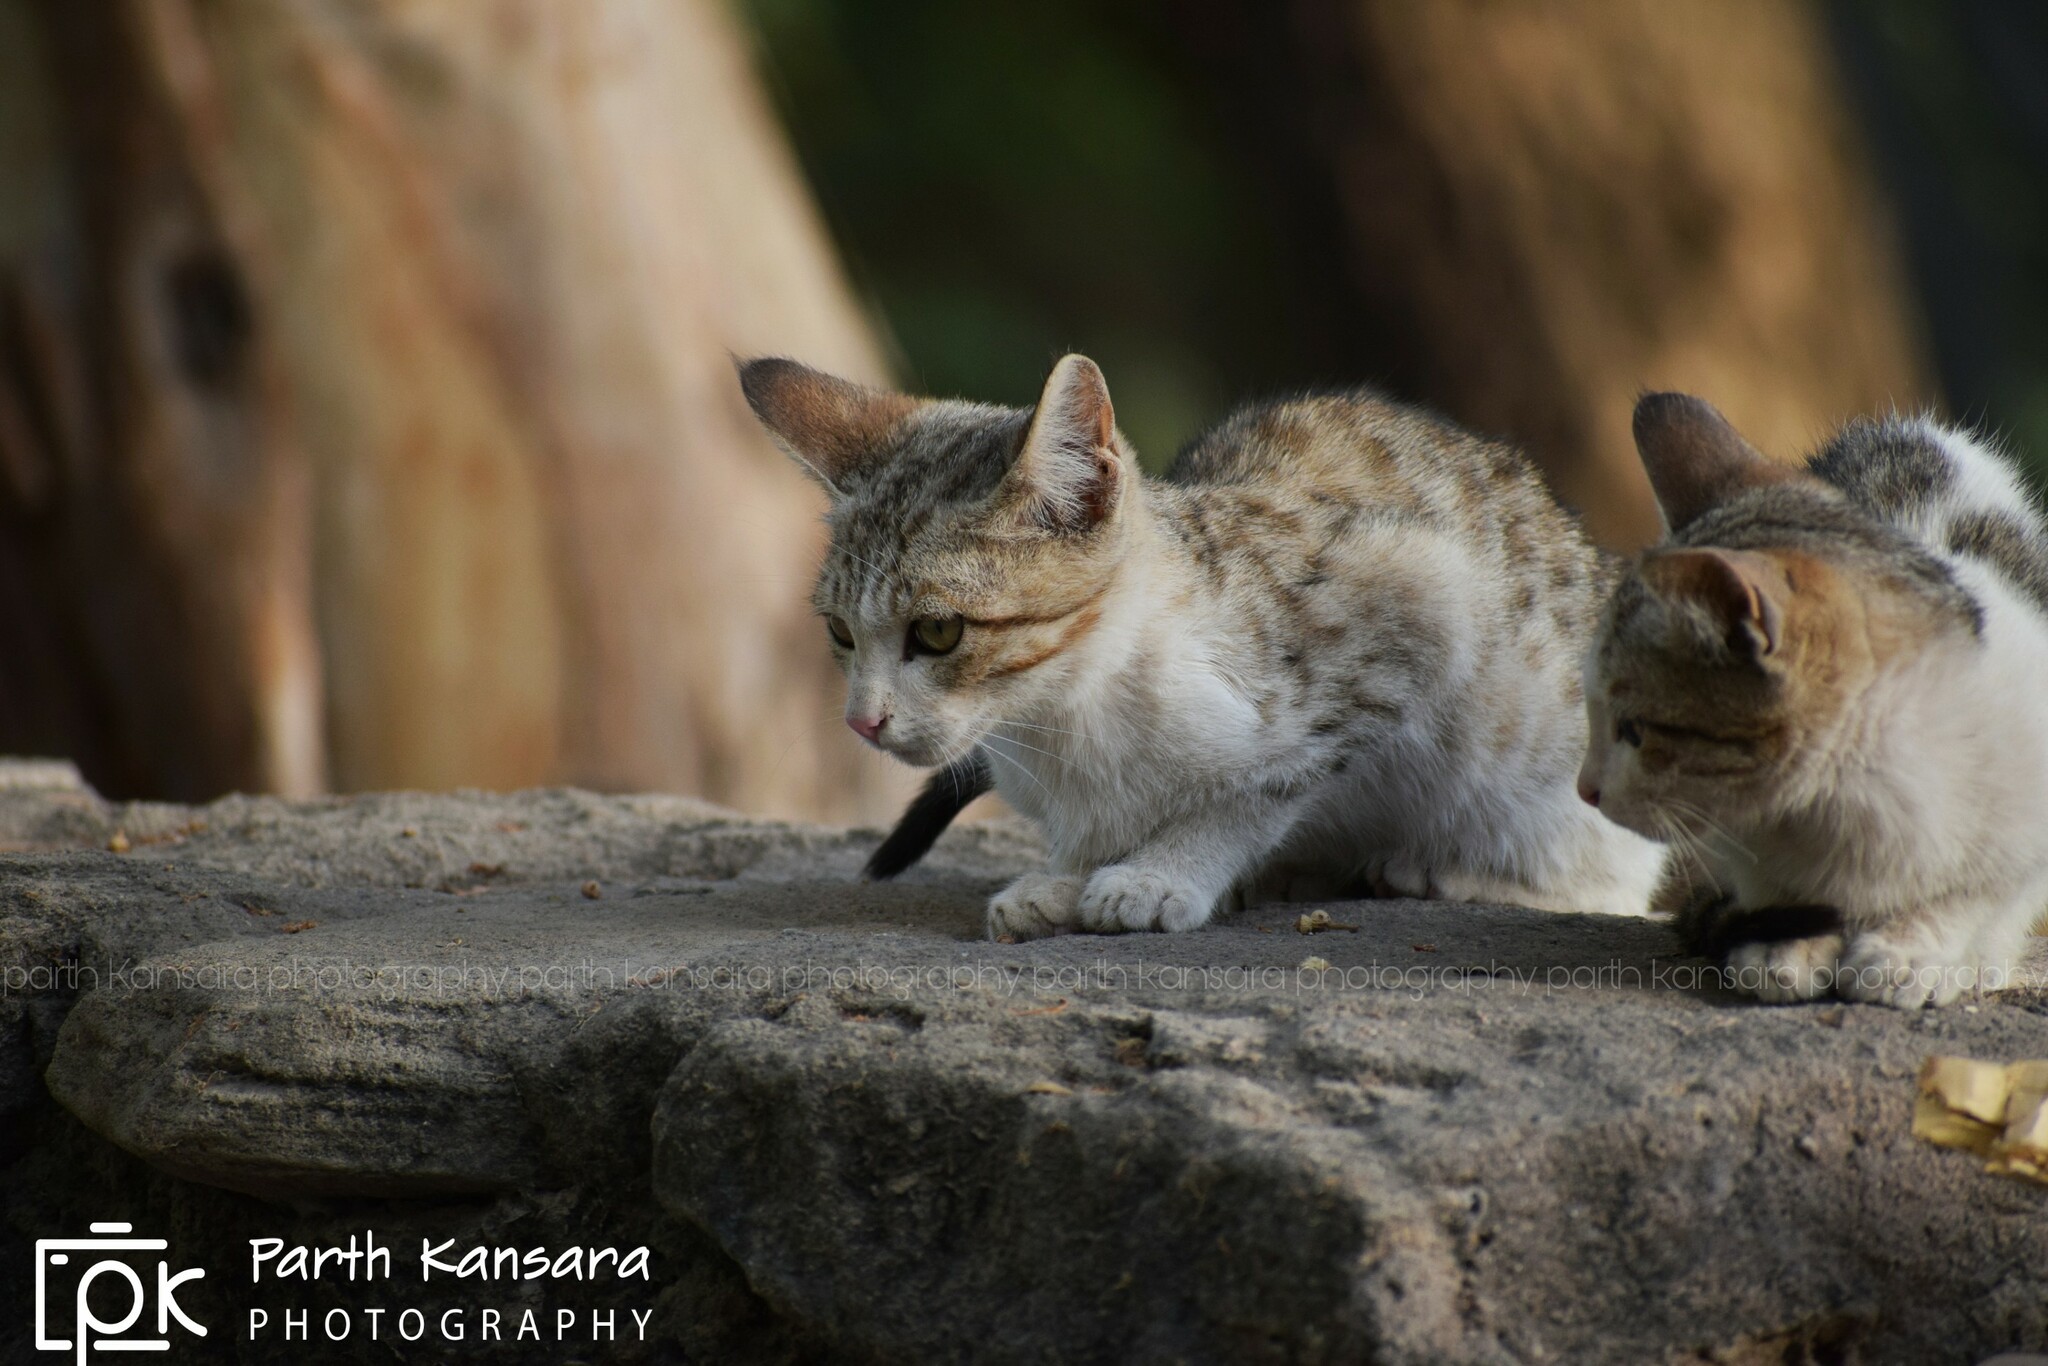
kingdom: Animalia
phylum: Chordata
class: Mammalia
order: Carnivora
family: Felidae
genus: Felis
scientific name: Felis catus
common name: Domestic cat
